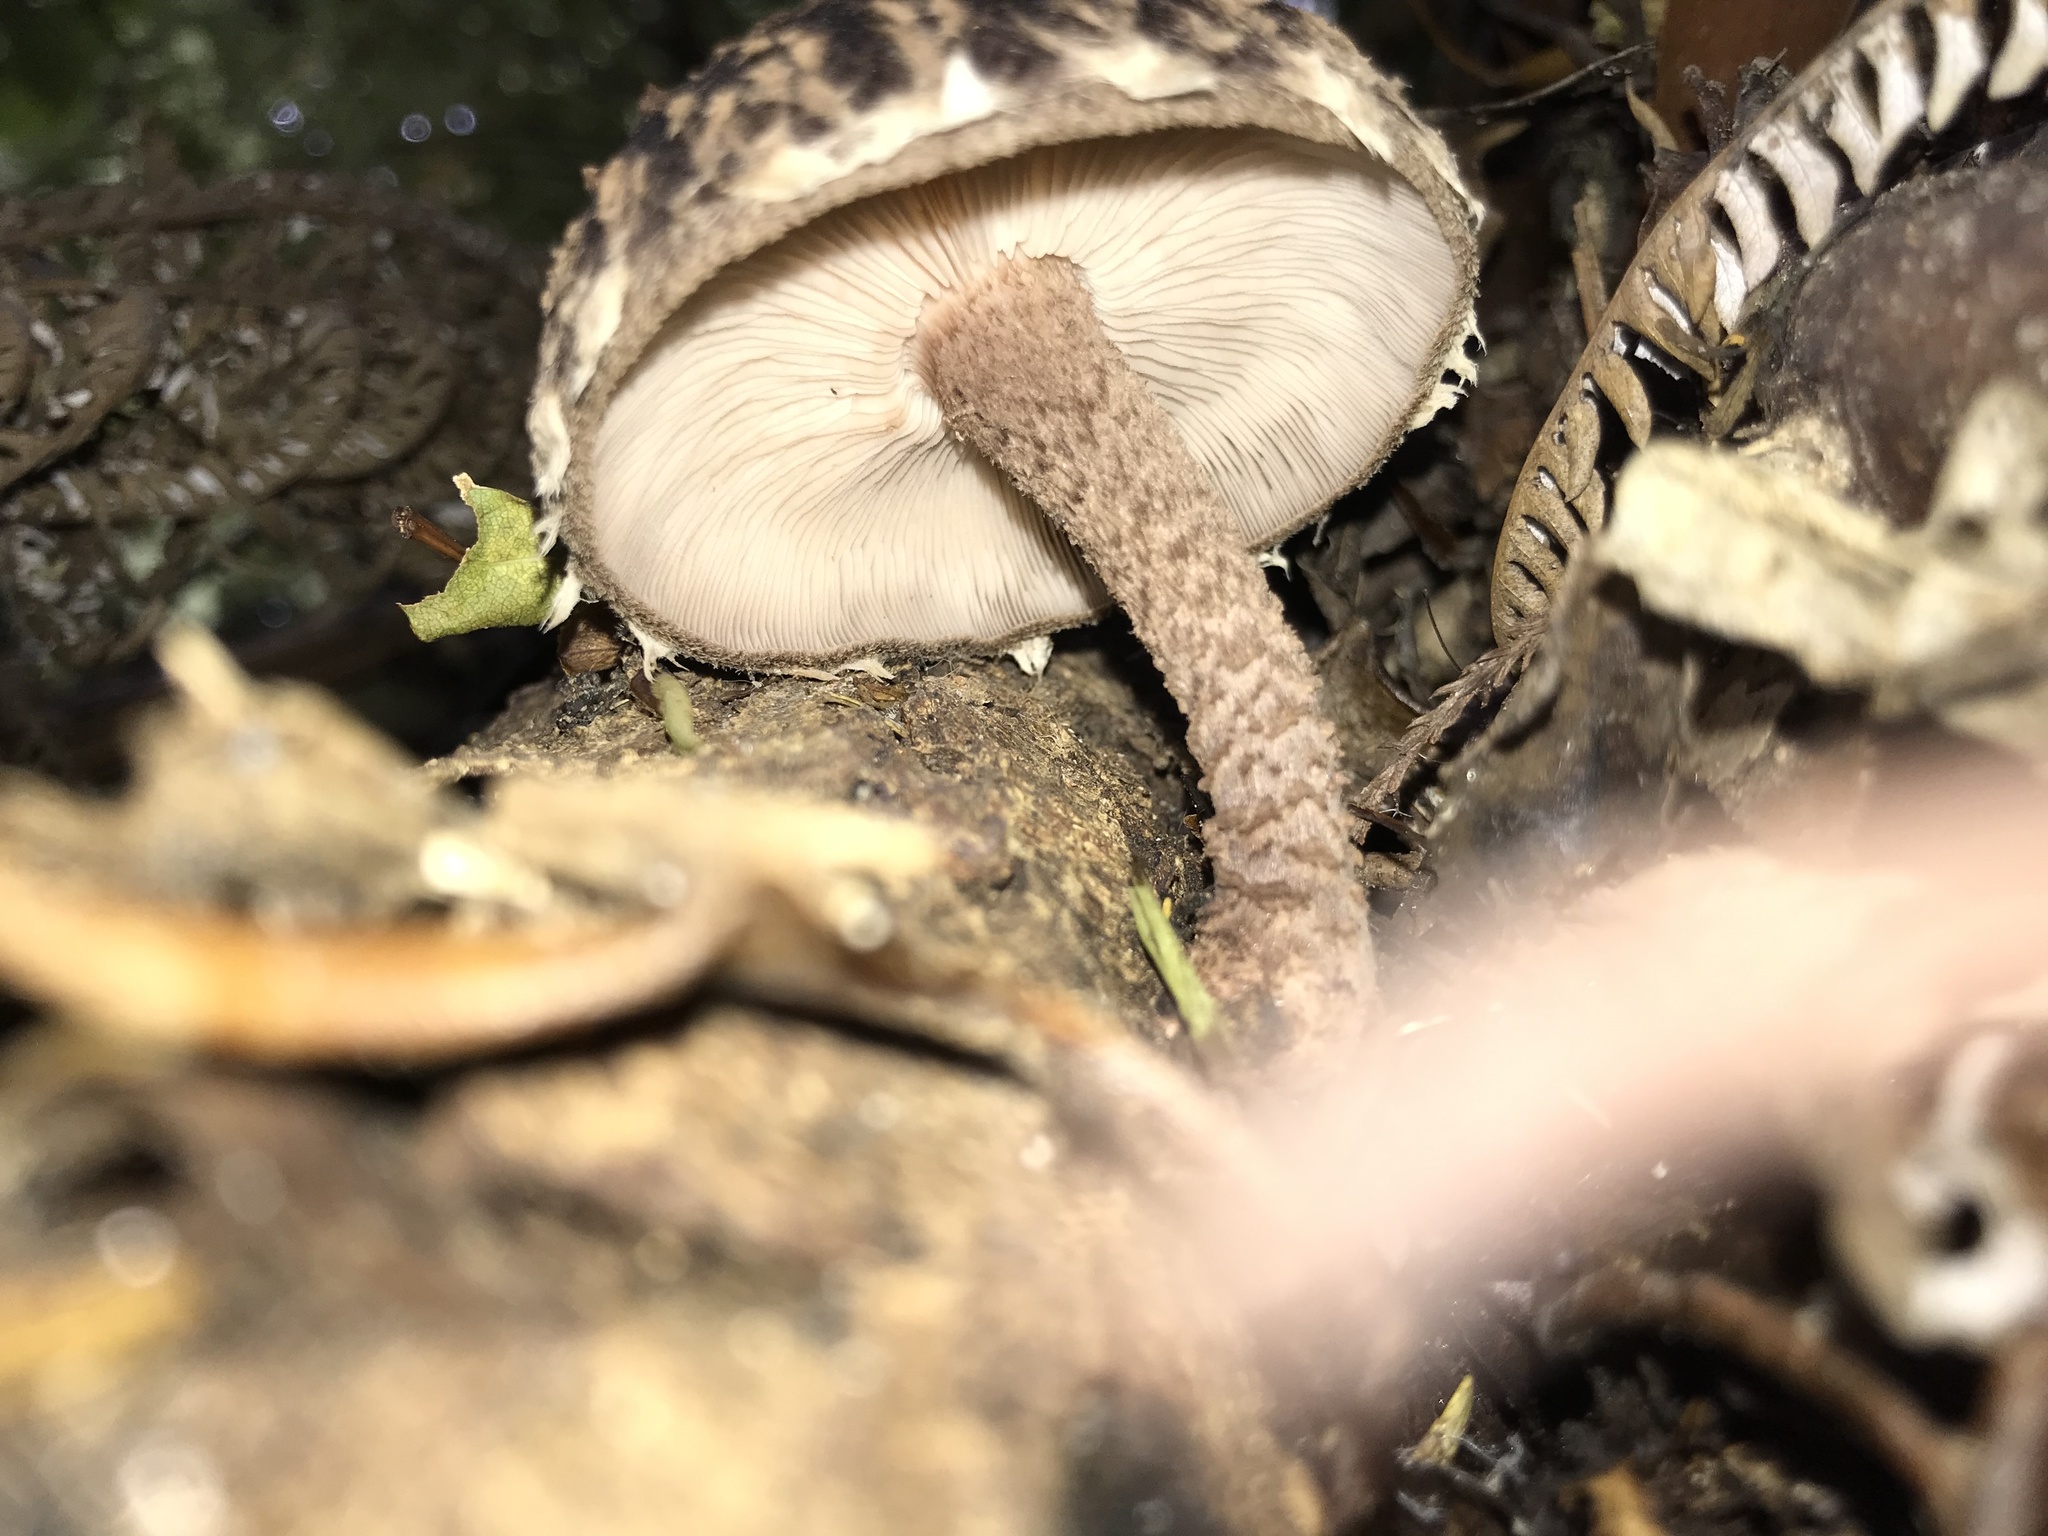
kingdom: Fungi
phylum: Basidiomycota
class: Agaricomycetes
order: Agaricales
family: Omphalotaceae
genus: Lentinula
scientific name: Lentinula novae-zelandiae
